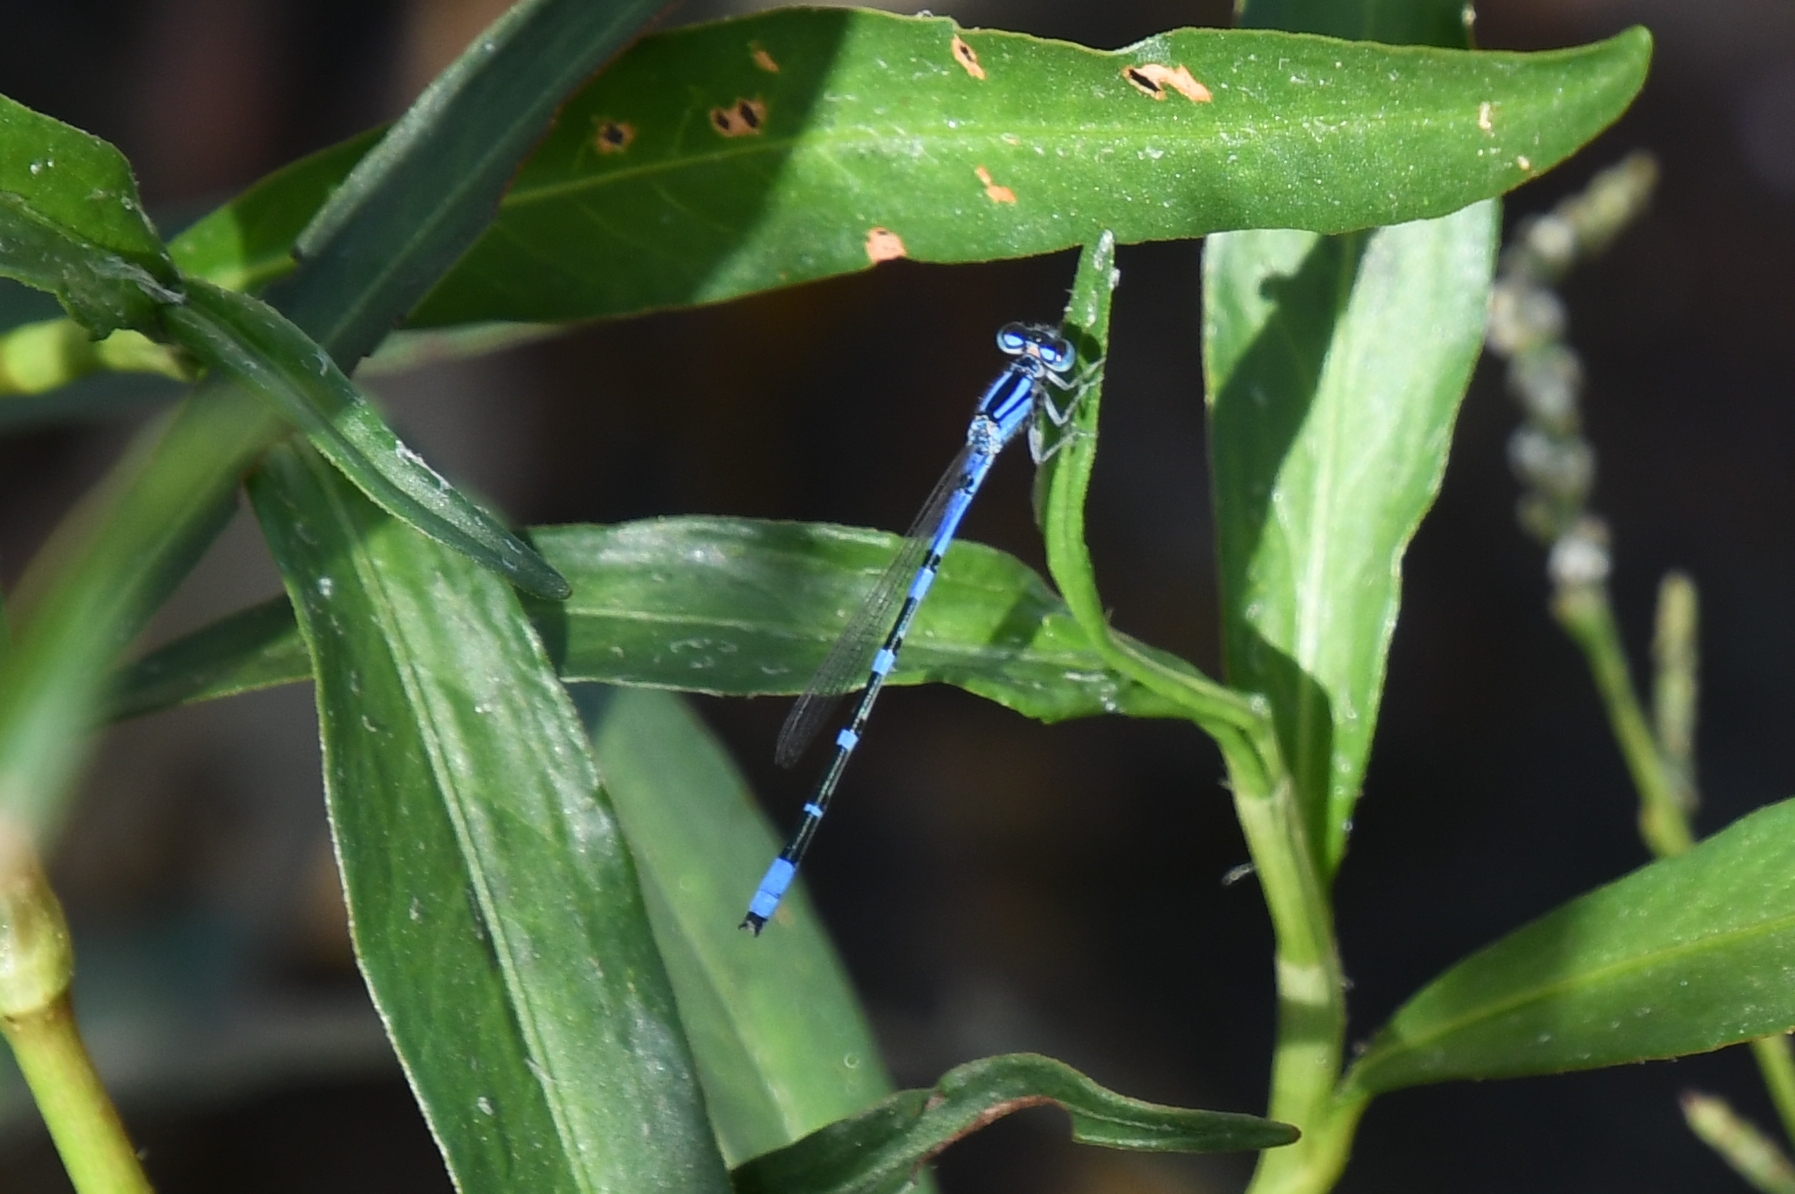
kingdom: Animalia
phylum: Arthropoda
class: Insecta
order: Odonata
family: Coenagrionidae
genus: Enallagma
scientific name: Enallagma praevarum
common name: Arroyo bluet
